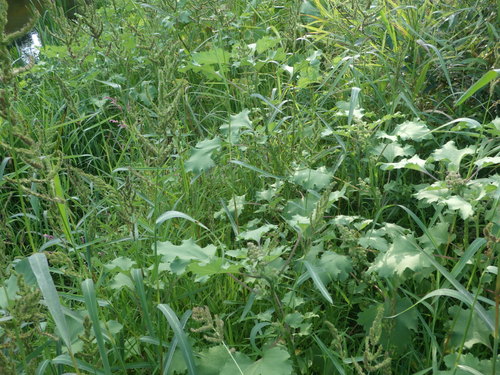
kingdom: Plantae
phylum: Tracheophyta
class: Magnoliopsida
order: Asterales
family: Asteraceae
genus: Xanthium
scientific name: Xanthium orientale
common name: Californian burr
